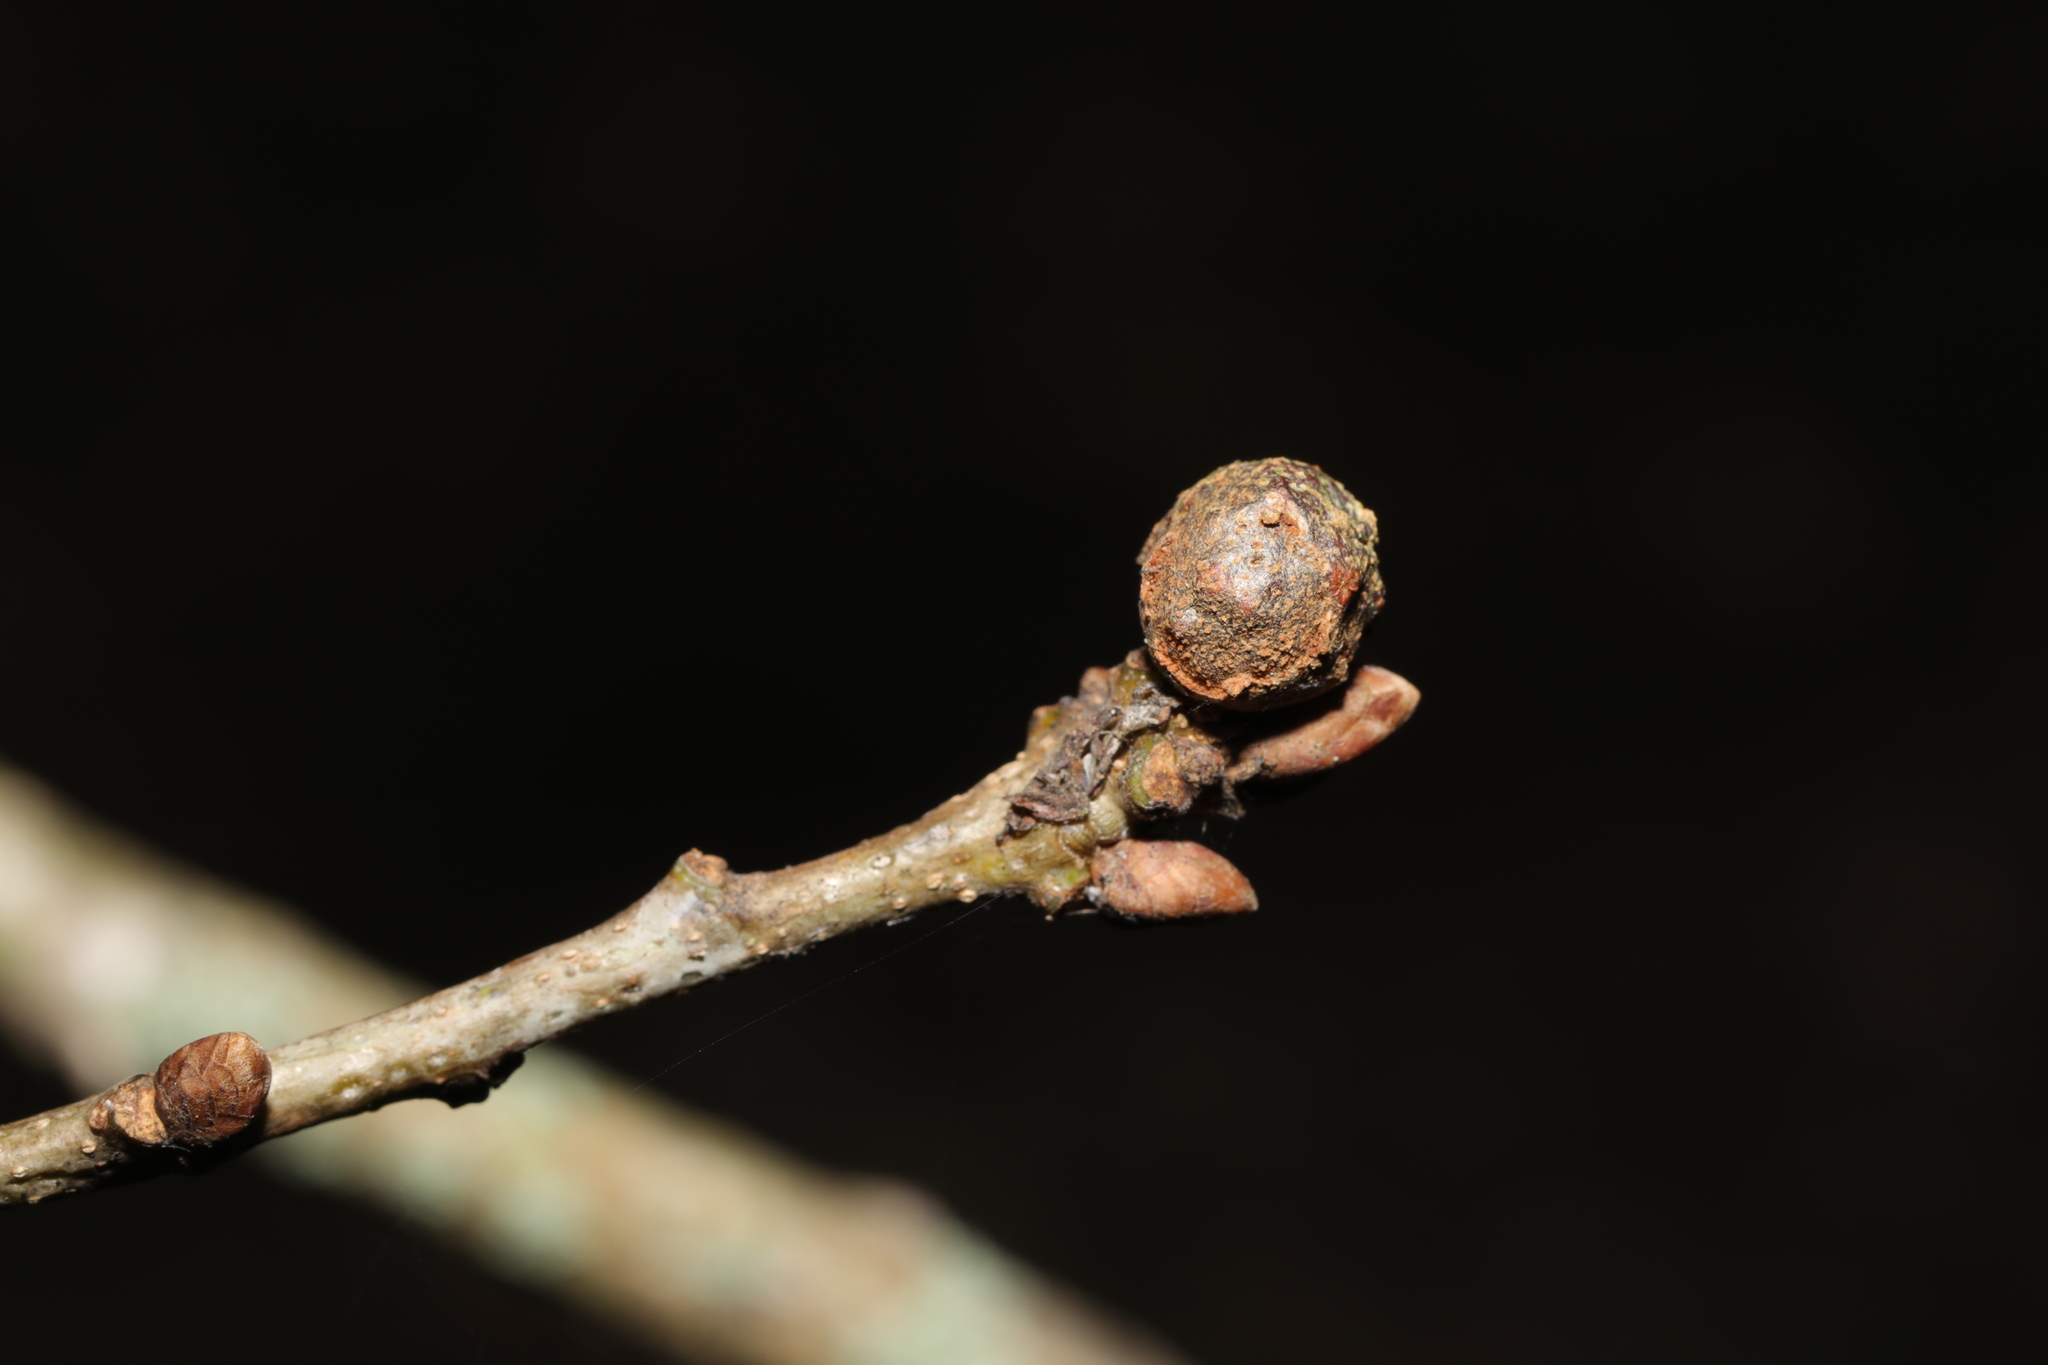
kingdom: Animalia
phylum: Arthropoda
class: Insecta
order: Hymenoptera
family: Cynipidae
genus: Andricus
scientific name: Andricus lignicolus
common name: Cola-nut gall
